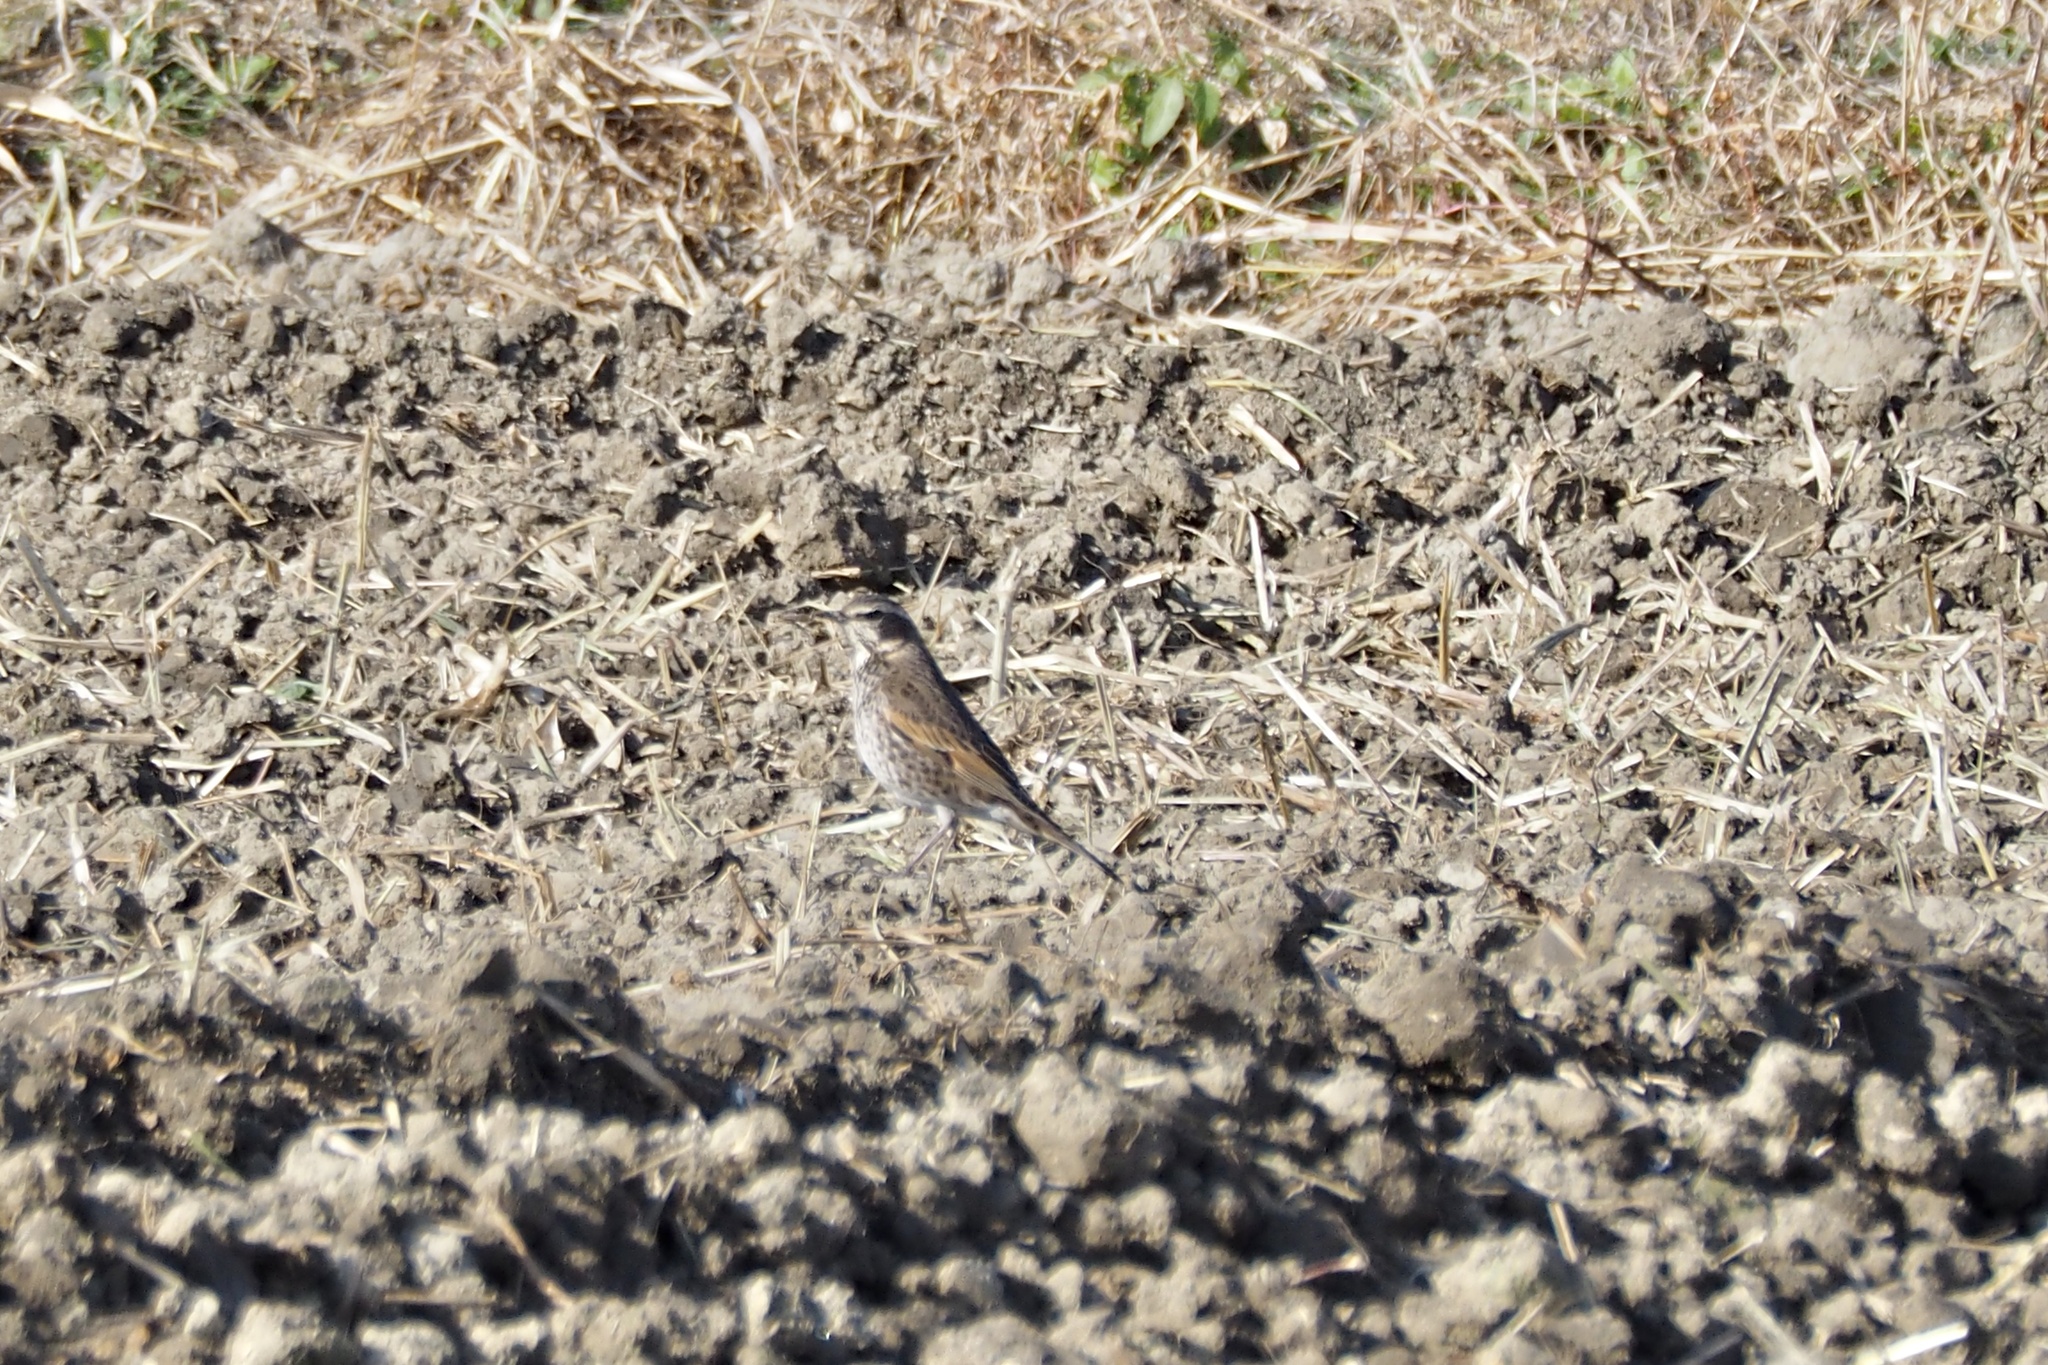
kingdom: Animalia
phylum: Chordata
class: Aves
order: Passeriformes
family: Turdidae
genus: Turdus
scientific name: Turdus eunomus
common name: Dusky thrush
